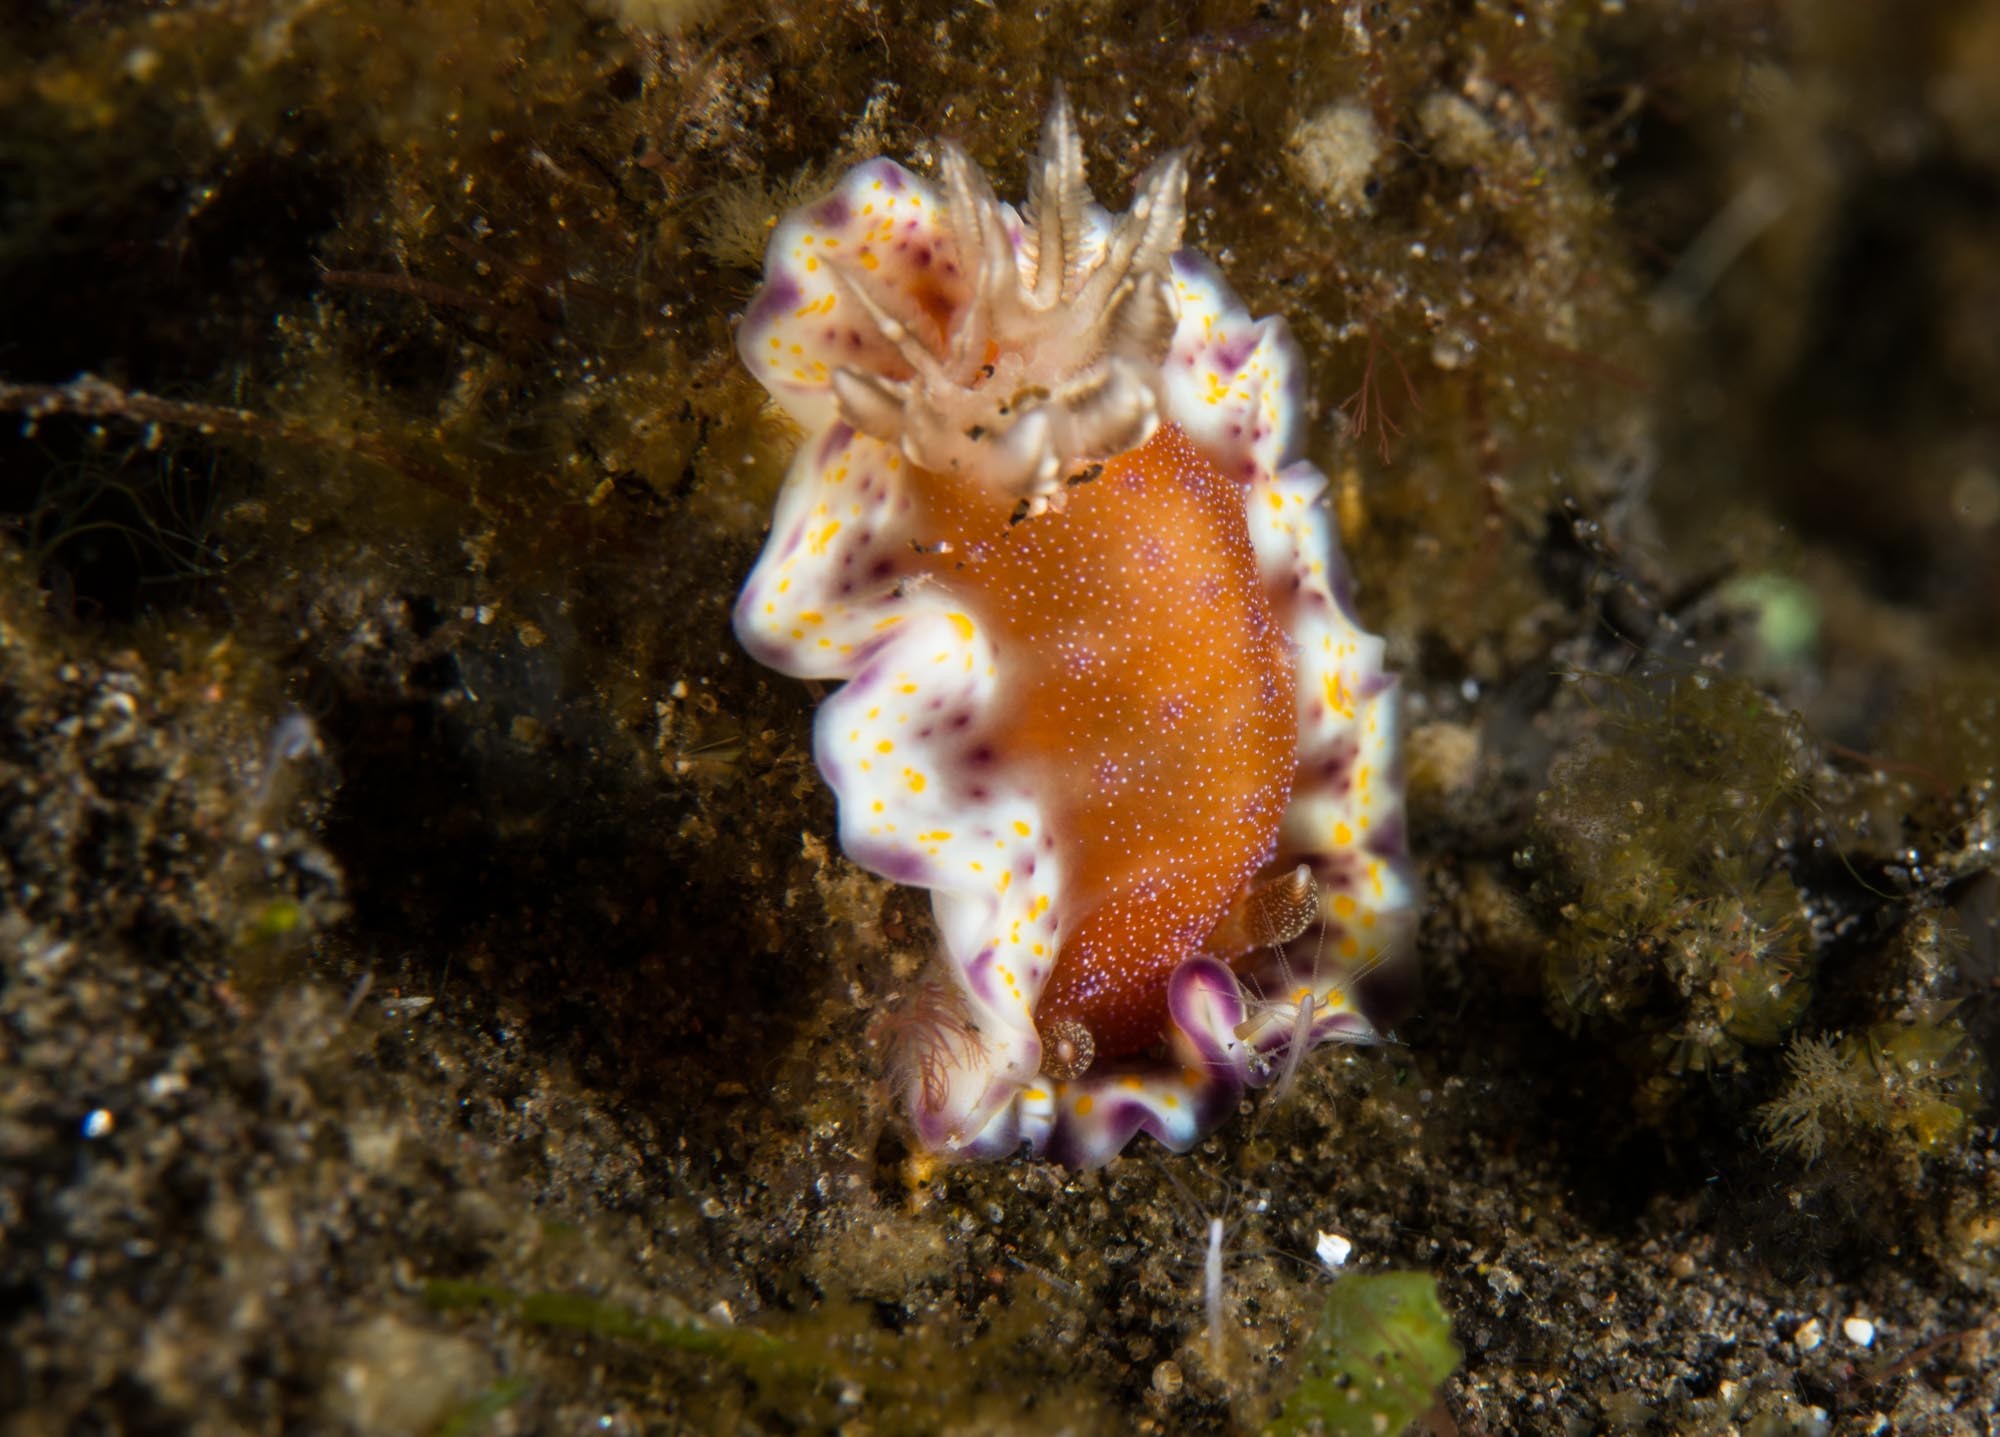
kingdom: Animalia
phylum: Mollusca
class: Gastropoda
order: Nudibranchia
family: Chromodorididae
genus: Goniobranchus
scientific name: Goniobranchus collingwoodi
